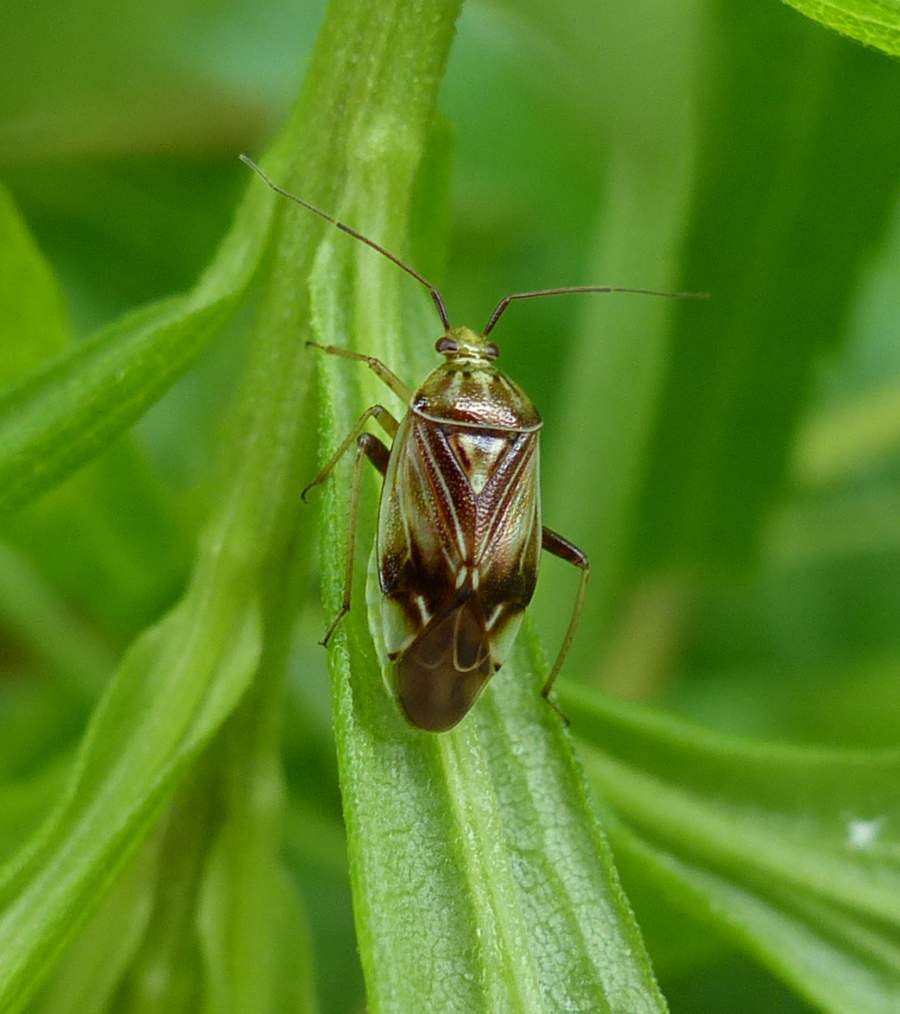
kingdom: Animalia
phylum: Arthropoda
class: Insecta
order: Hemiptera
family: Miridae
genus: Lygus
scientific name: Lygus
